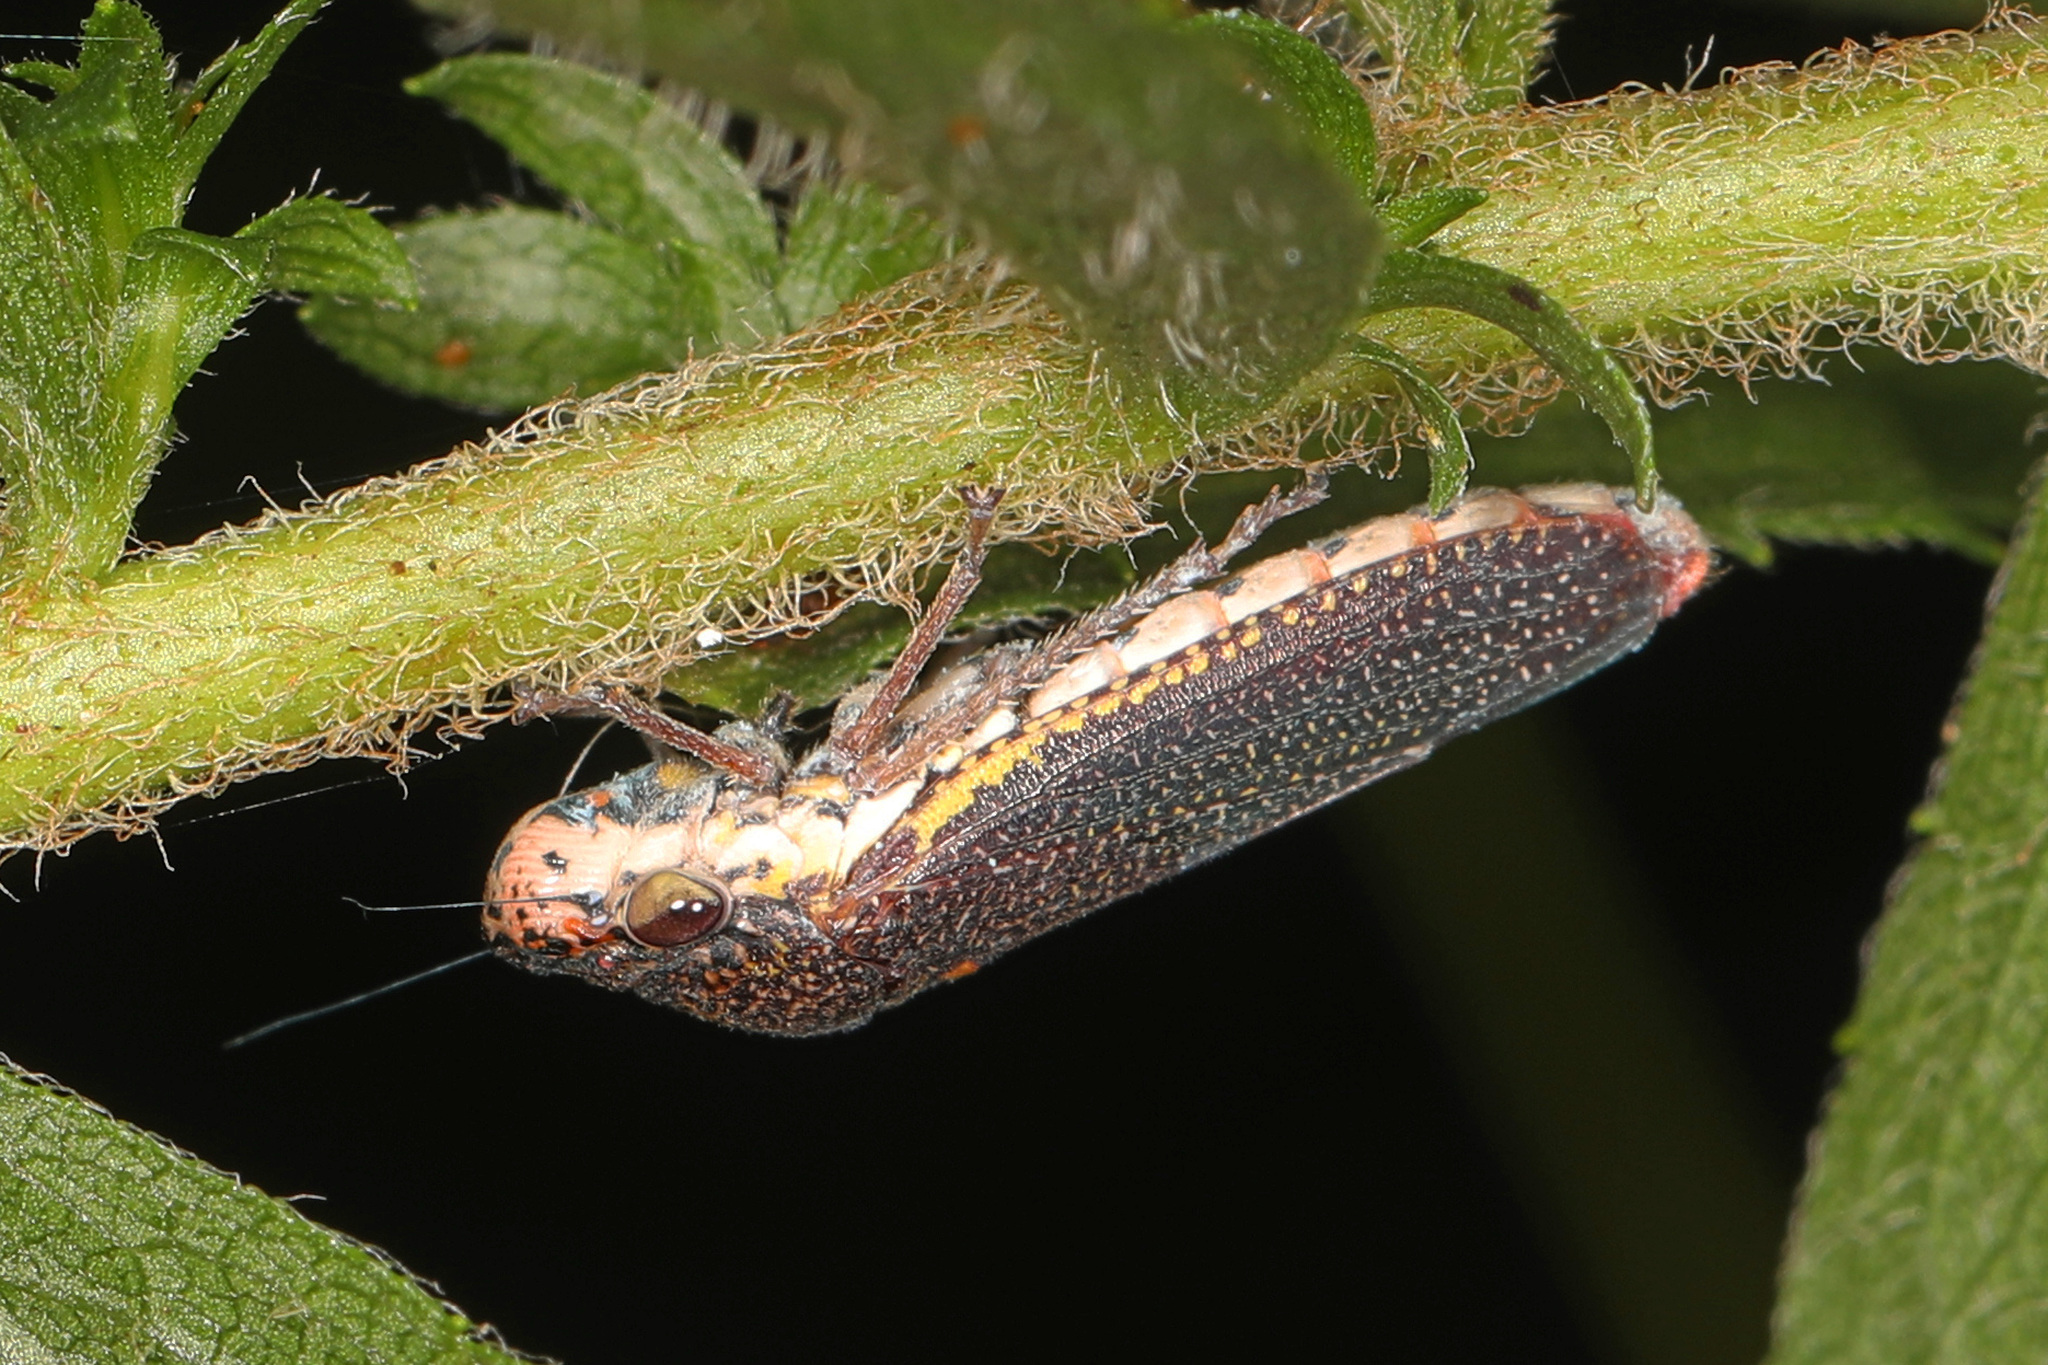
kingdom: Animalia
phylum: Arthropoda
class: Insecta
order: Hemiptera
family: Cicadellidae
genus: Paraulacizes
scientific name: Paraulacizes irrorata
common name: Speckled sharpshooter
